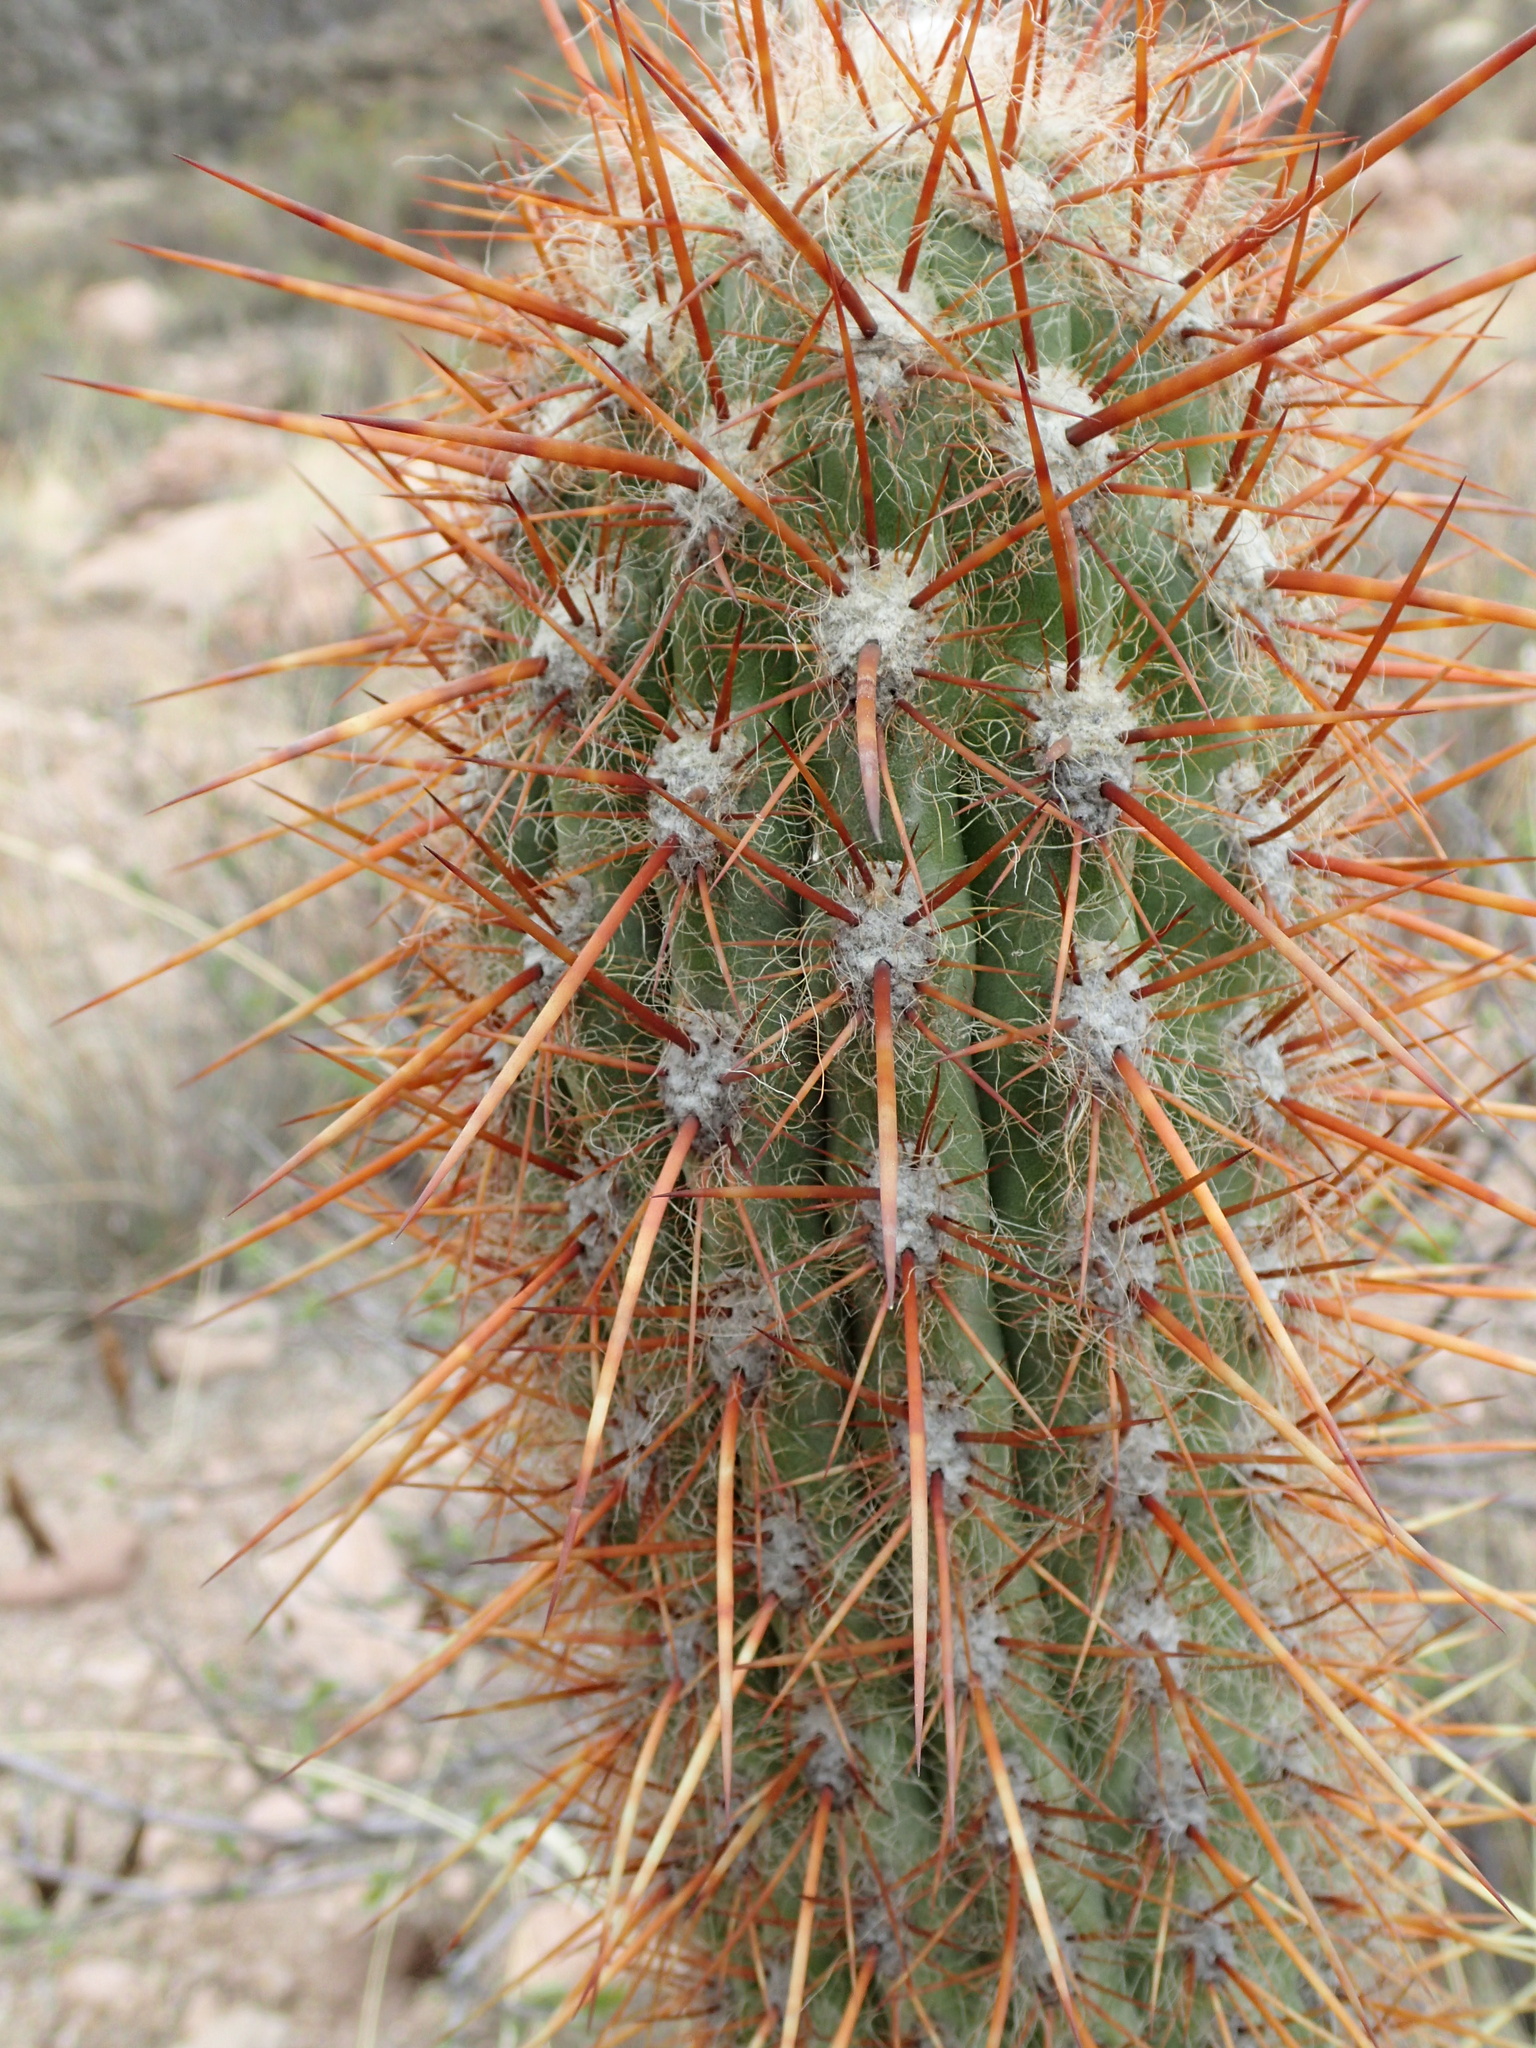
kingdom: Plantae
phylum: Tracheophyta
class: Magnoliopsida
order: Caryophyllales
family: Cactaceae
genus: Oreocereus
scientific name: Oreocereus leucotrichus
